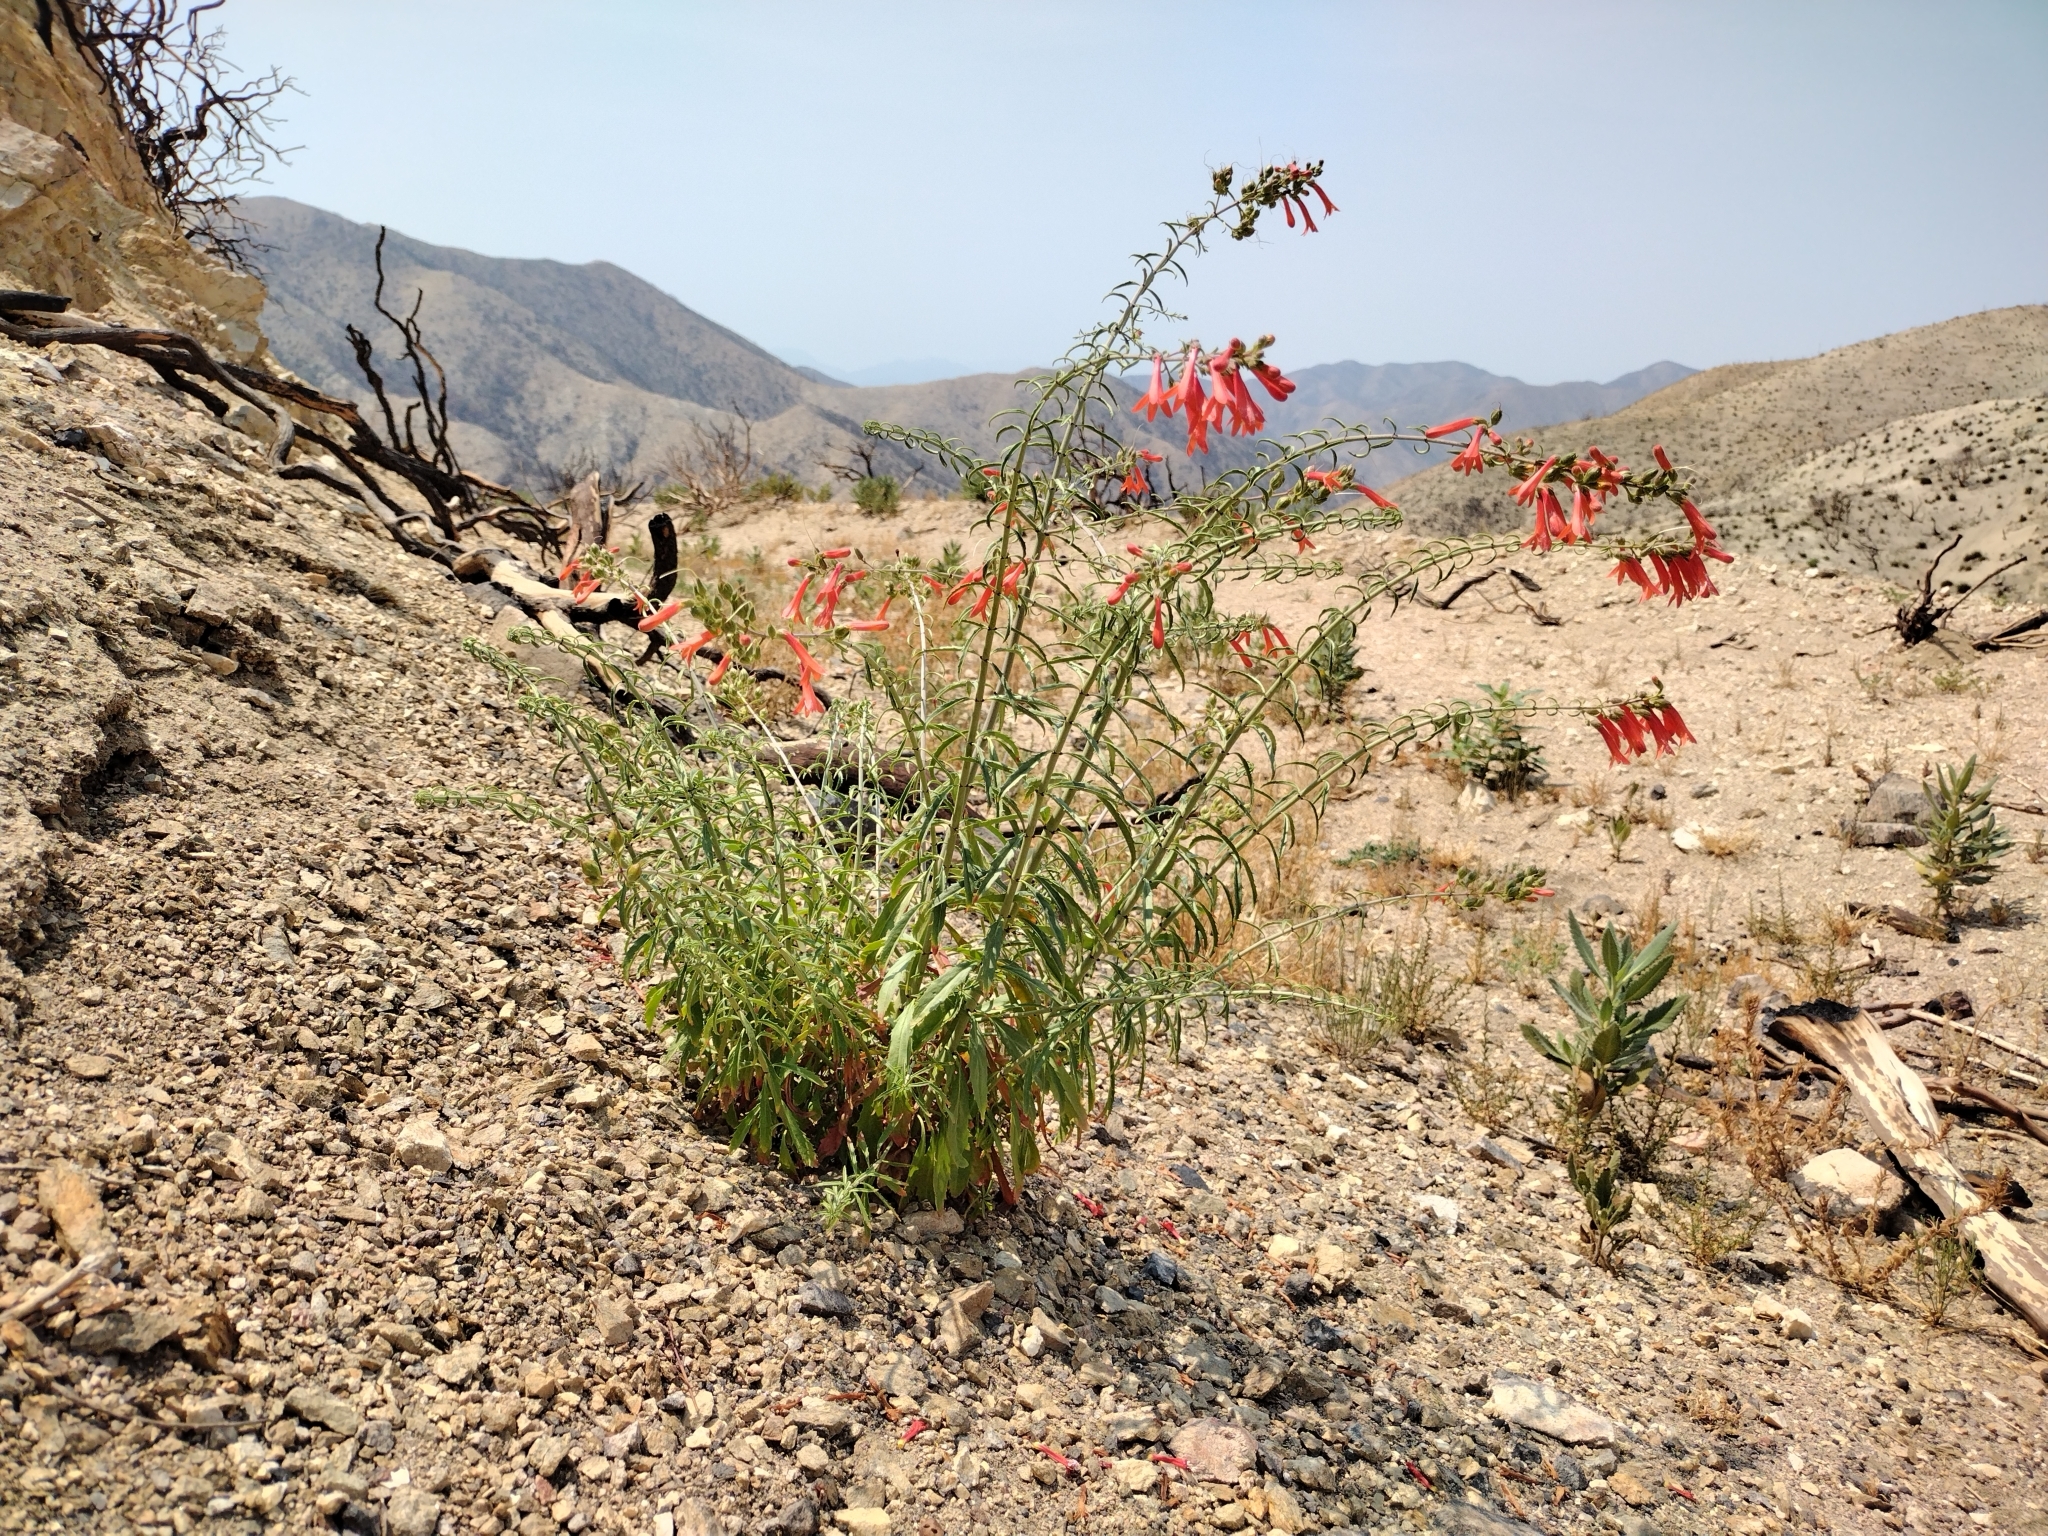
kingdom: Plantae
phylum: Tracheophyta
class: Magnoliopsida
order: Lamiales
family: Plantaginaceae
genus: Keckiella
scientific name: Keckiella ternata
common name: Scarlet keckiella
